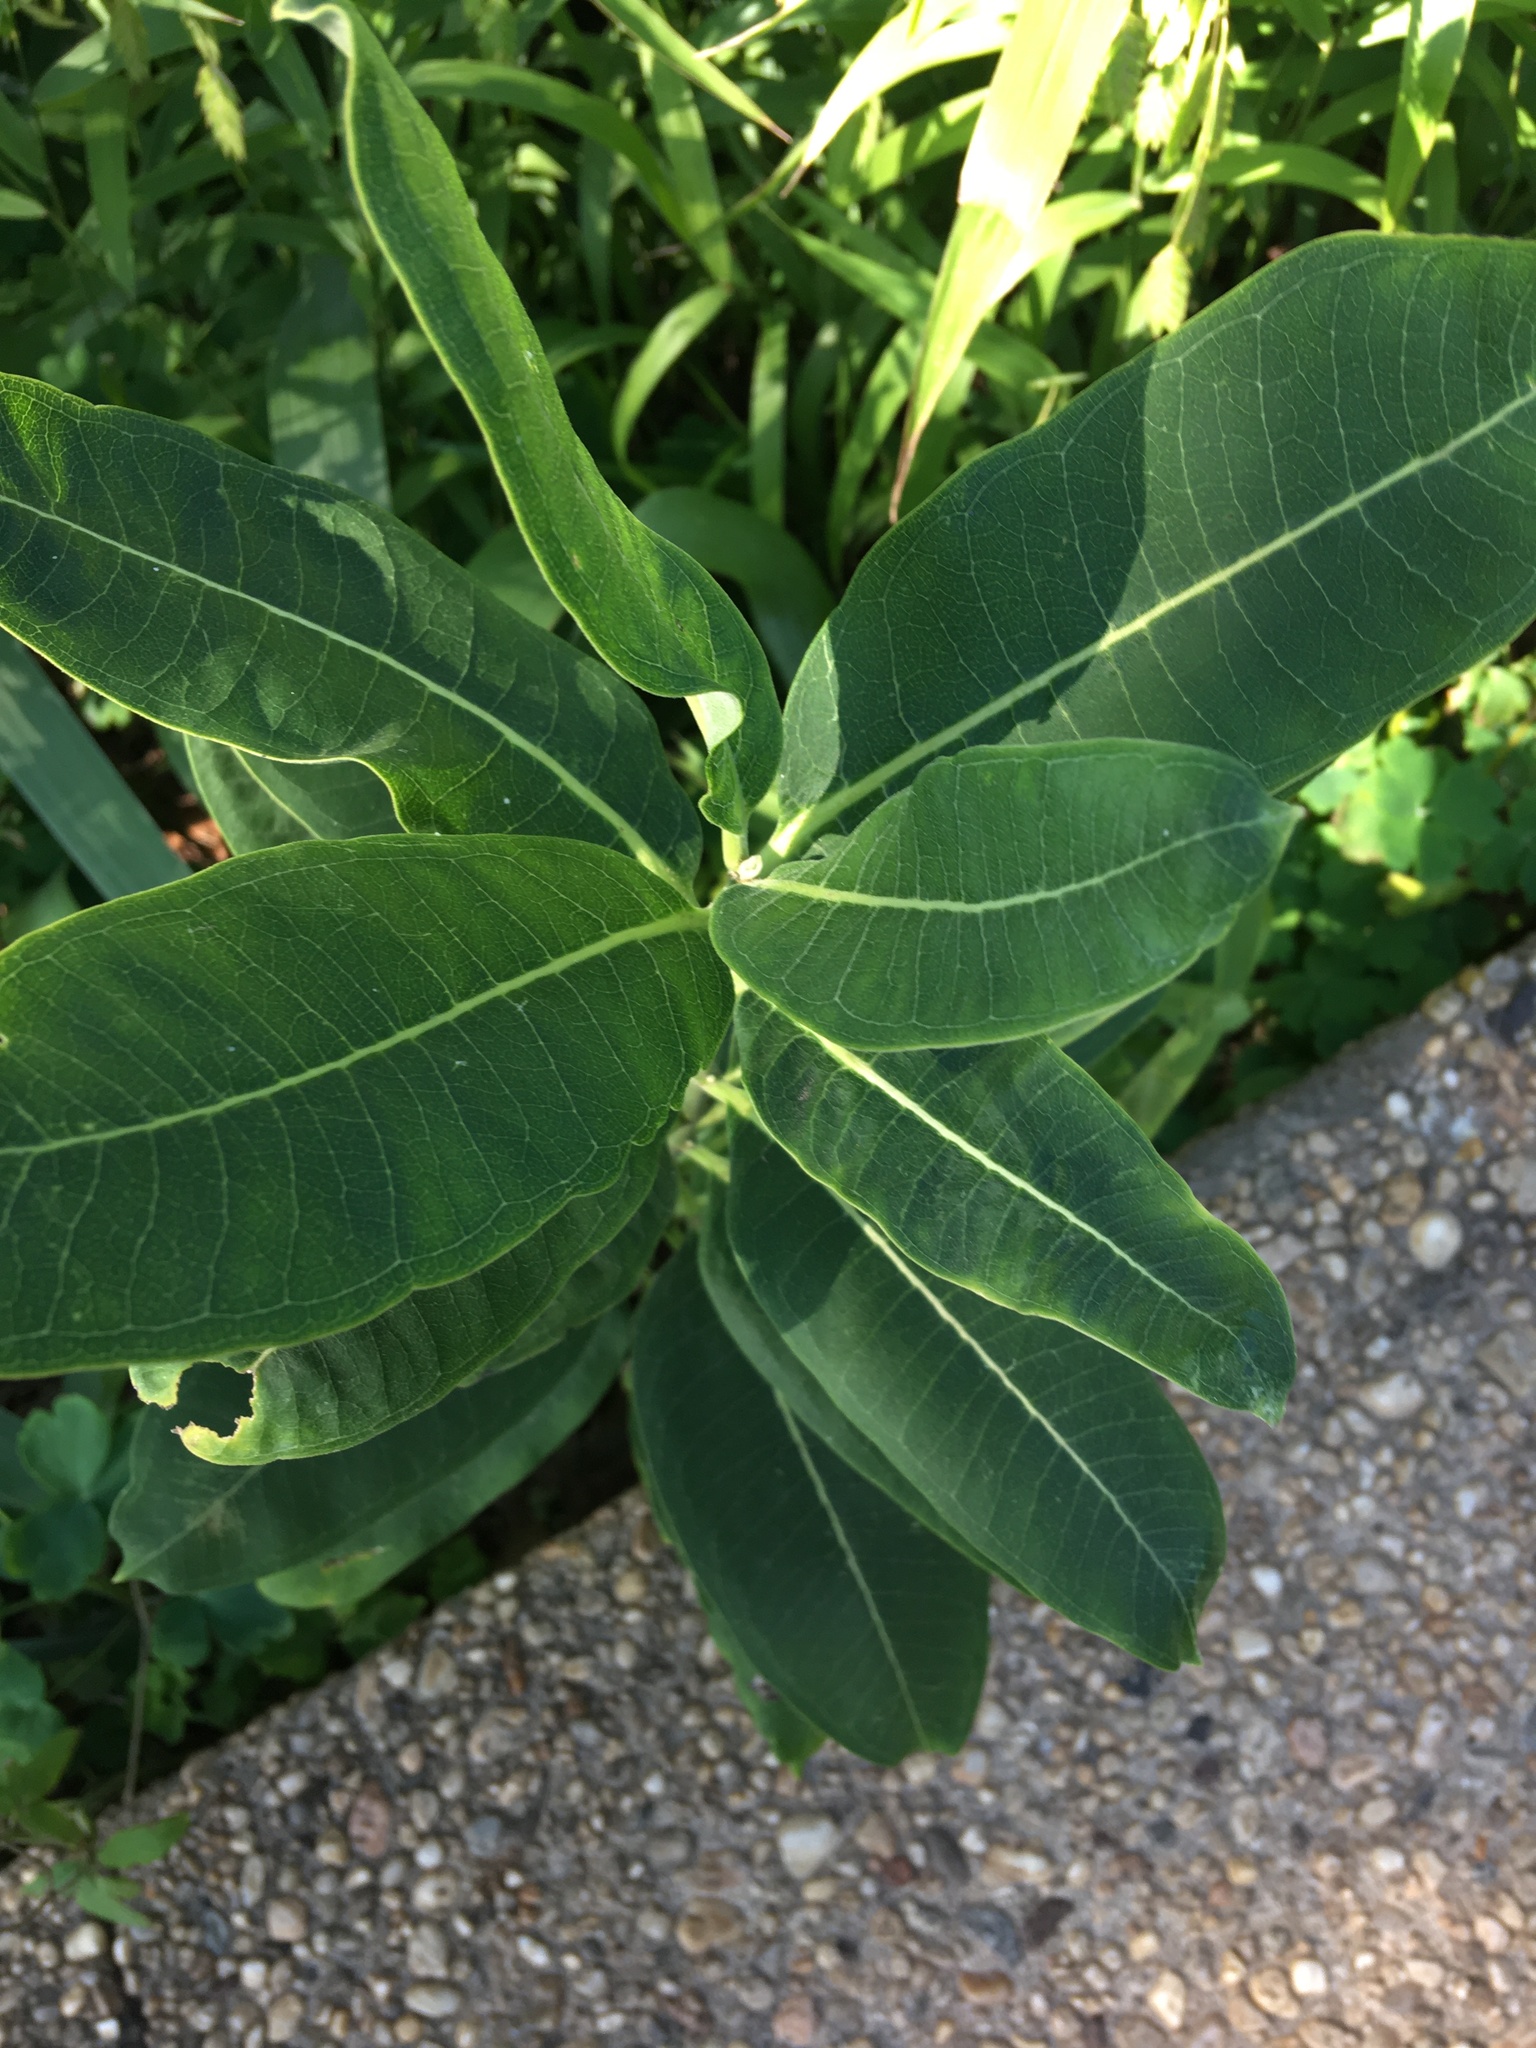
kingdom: Plantae
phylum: Tracheophyta
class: Magnoliopsida
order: Gentianales
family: Apocynaceae
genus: Asclepias
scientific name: Asclepias syriaca
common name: Common milkweed
